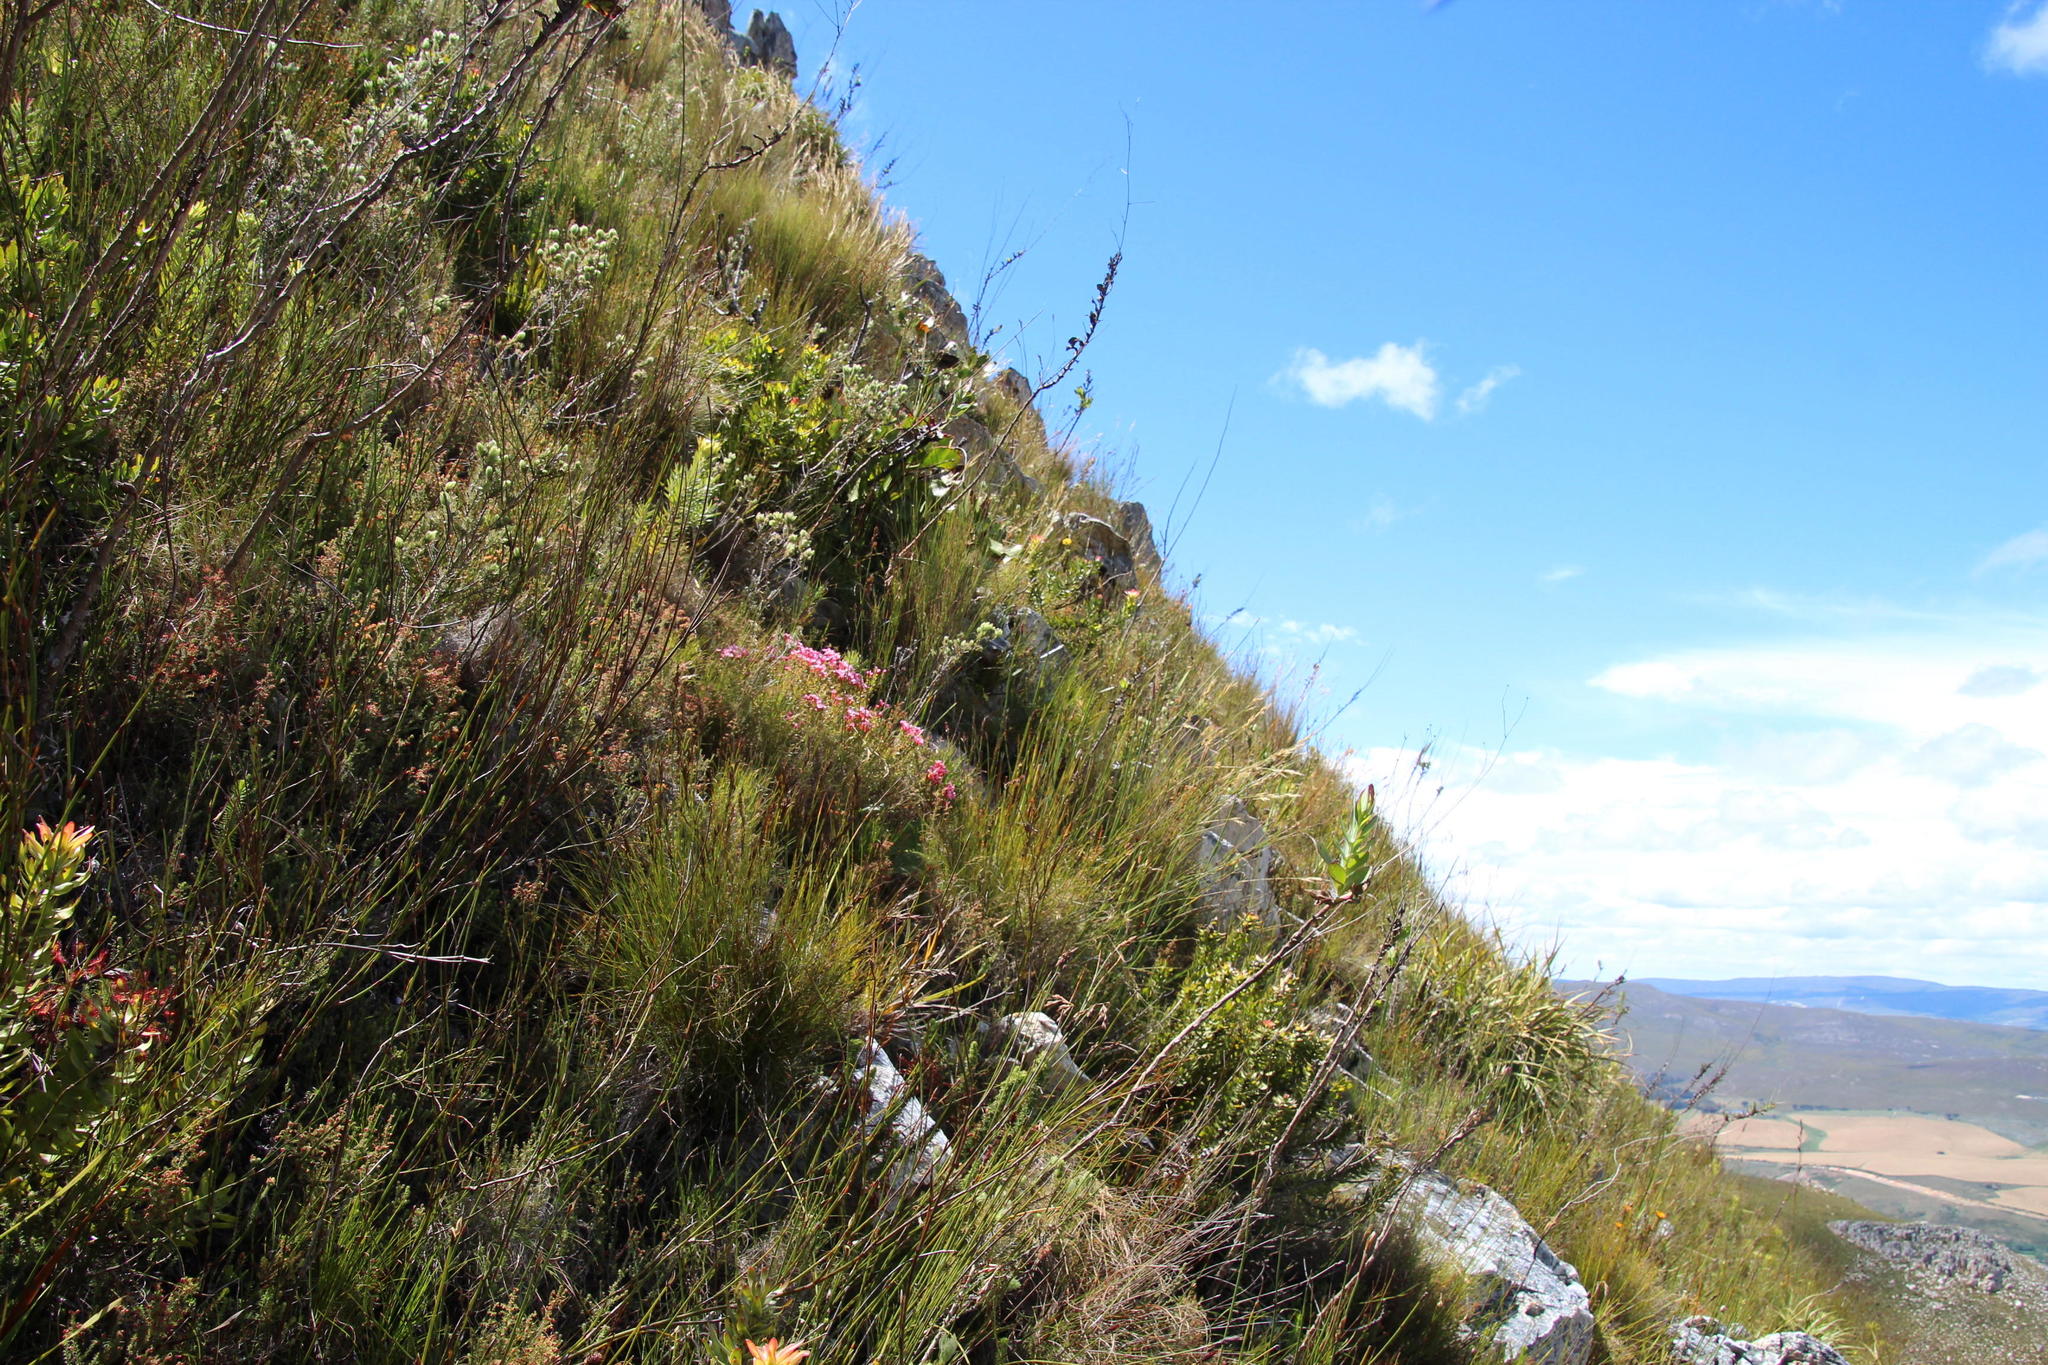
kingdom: Plantae
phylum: Tracheophyta
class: Magnoliopsida
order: Myrtales
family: Penaeaceae
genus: Brachysiphon
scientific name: Brachysiphon acutus
